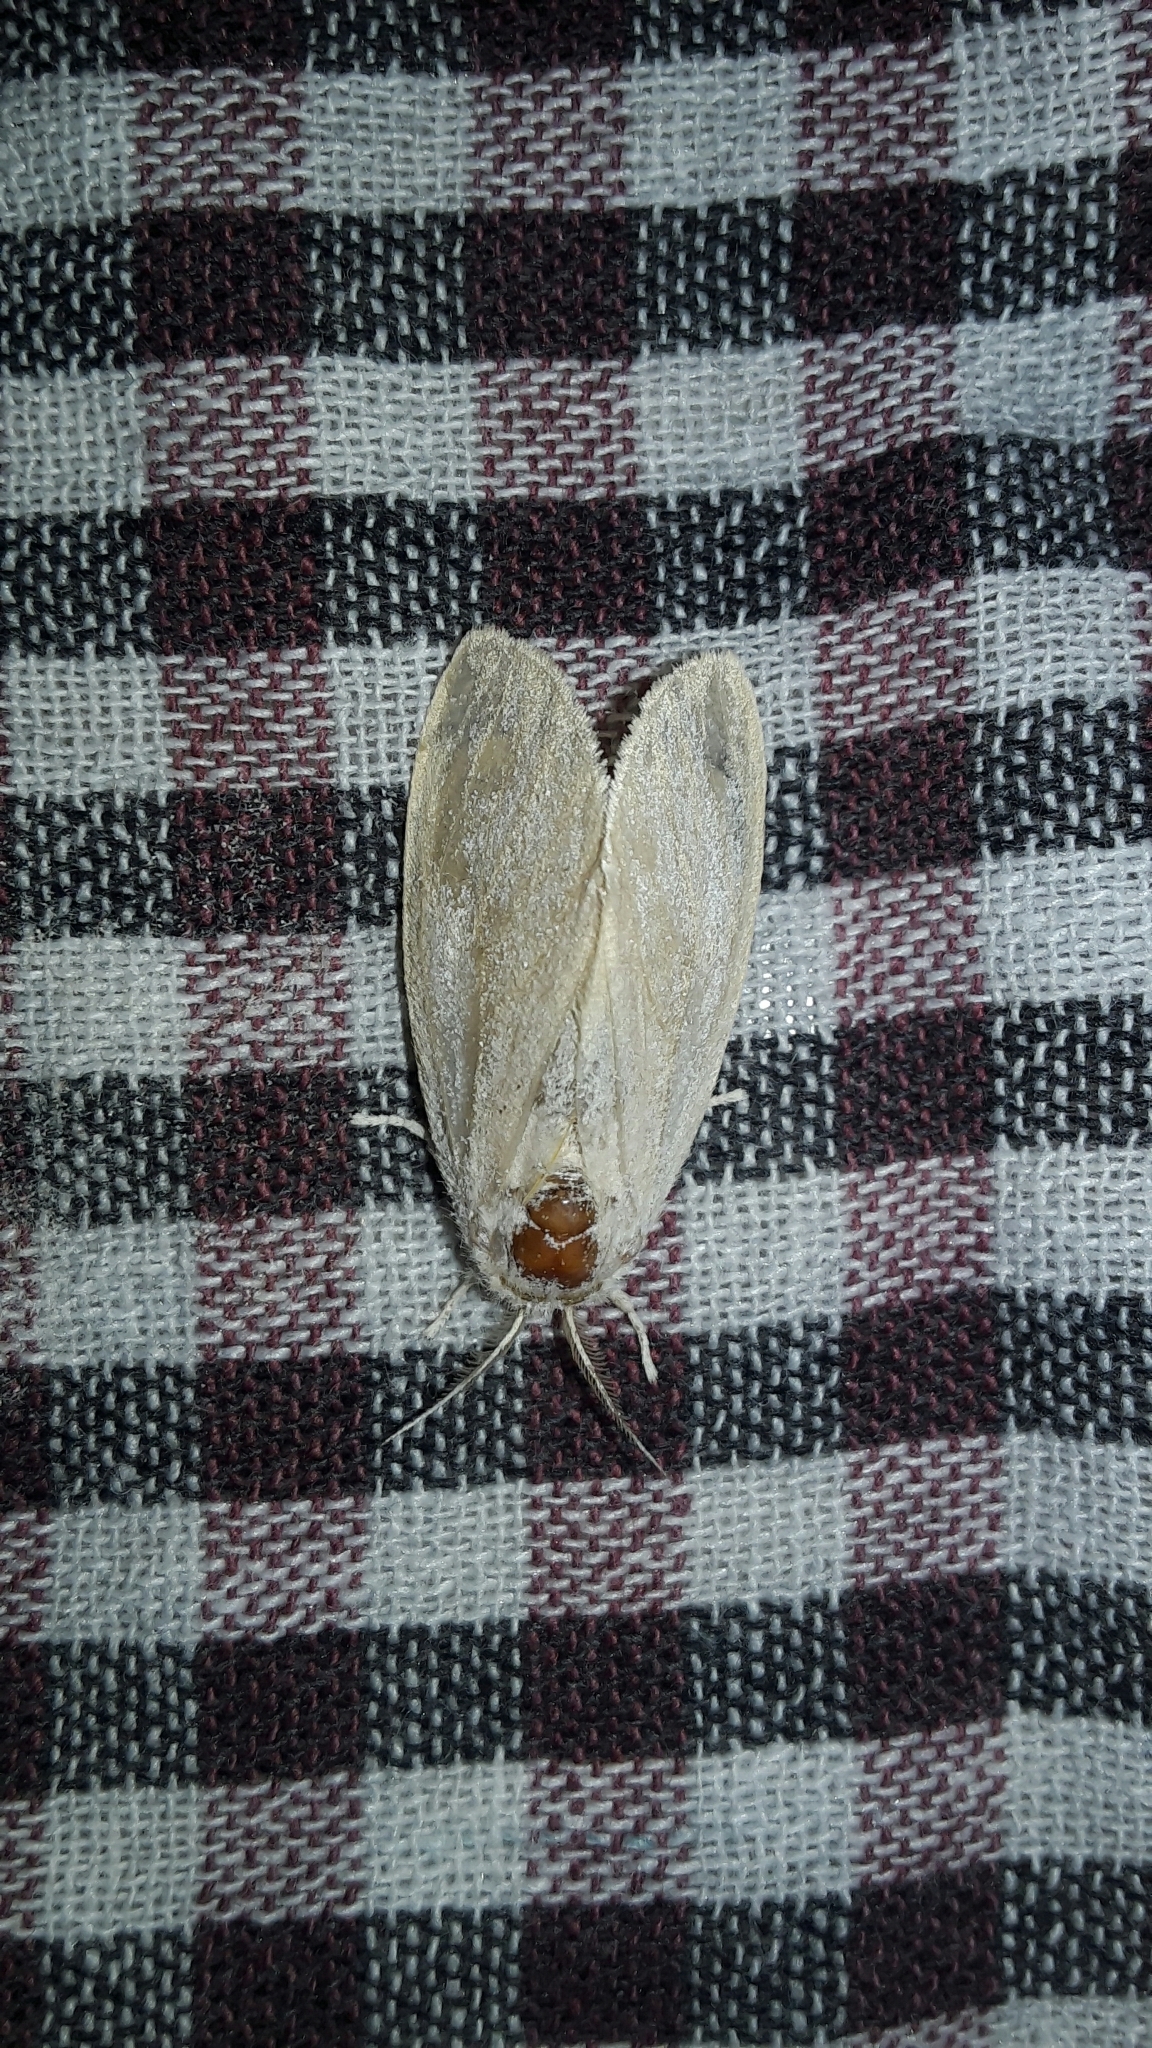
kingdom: Animalia
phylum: Arthropoda
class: Insecta
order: Lepidoptera
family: Erebidae
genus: Perina
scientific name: Perina nuda
